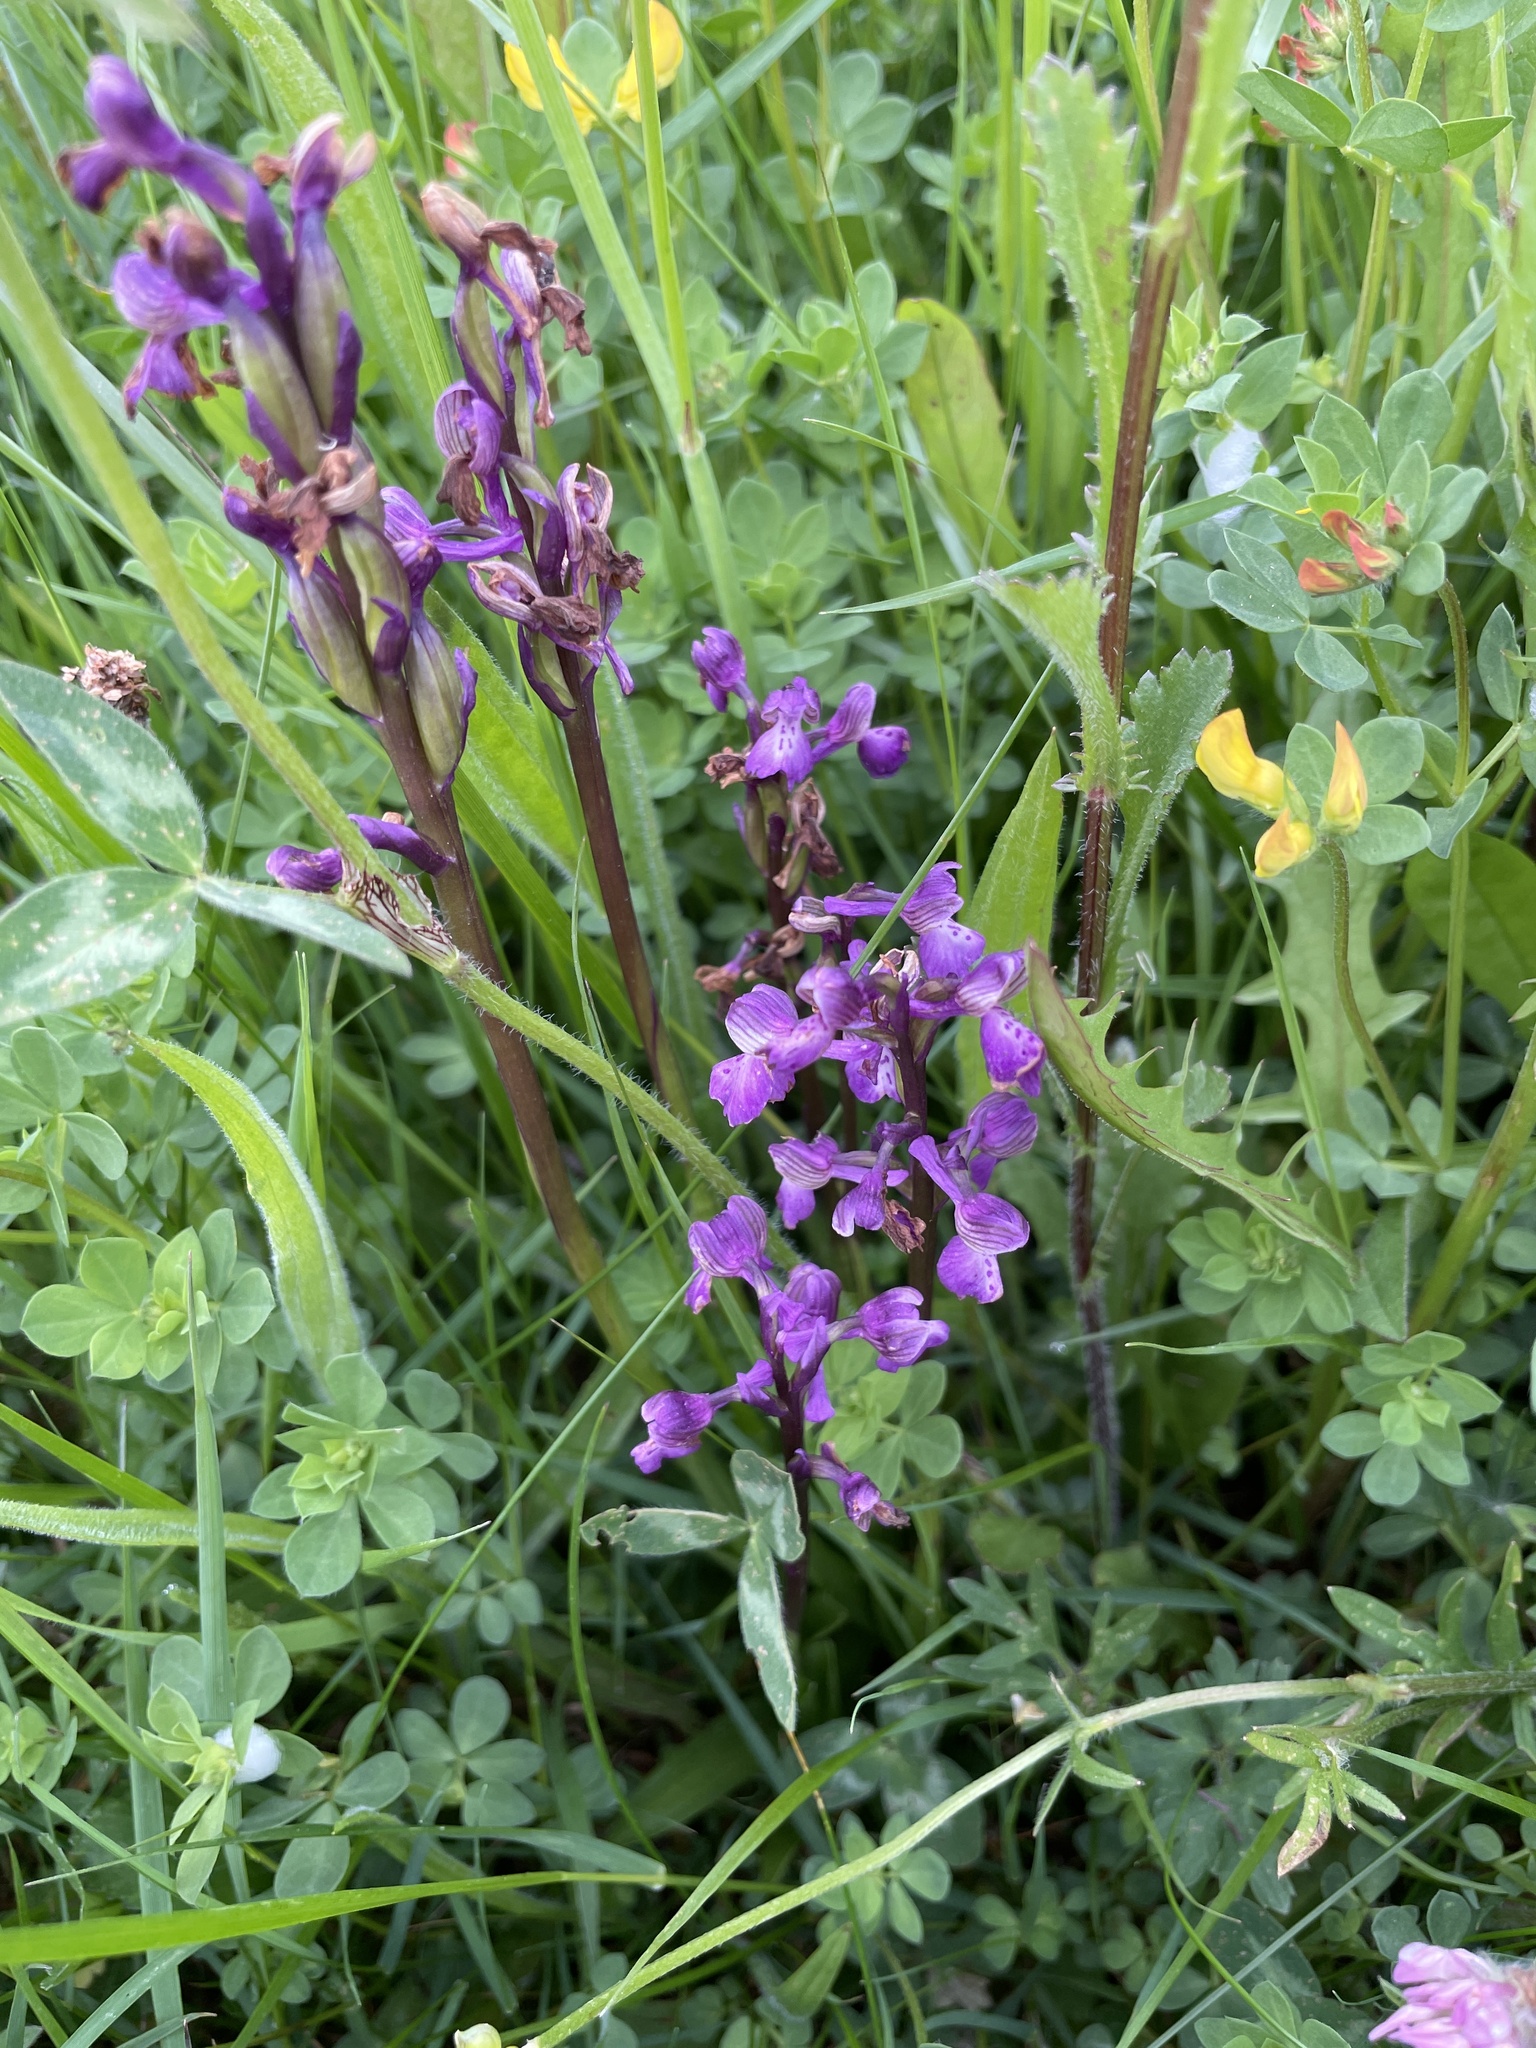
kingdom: Plantae
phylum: Tracheophyta
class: Liliopsida
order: Asparagales
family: Orchidaceae
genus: Anacamptis
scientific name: Anacamptis morio
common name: Green-winged orchid
